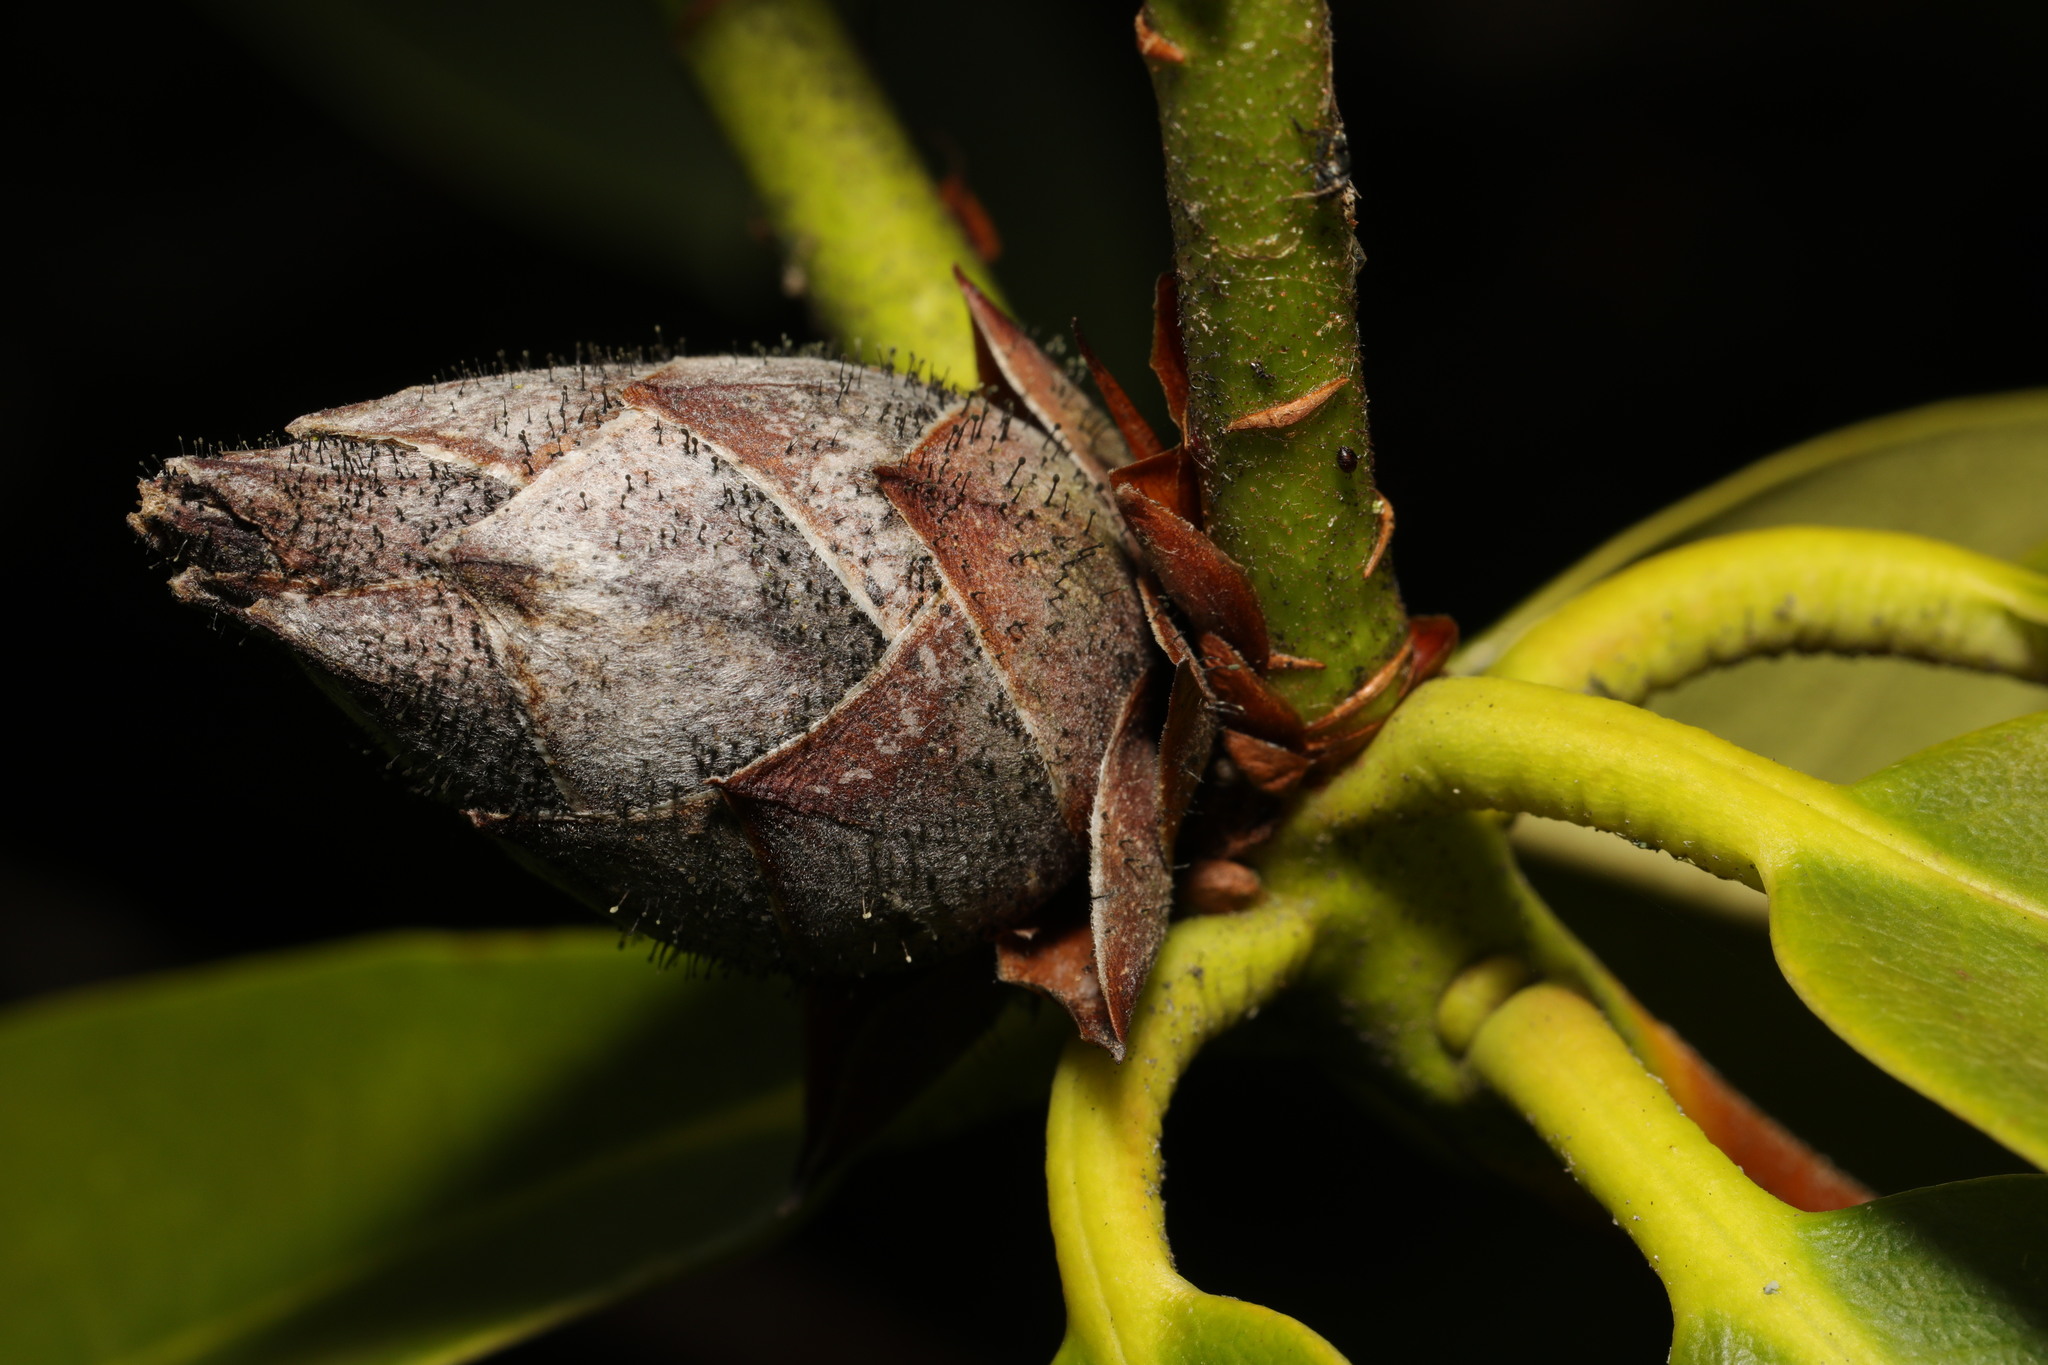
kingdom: Fungi
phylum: Ascomycota
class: Dothideomycetes
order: Pleosporales
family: Melanommataceae
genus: Seifertia
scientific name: Seifertia azaleae
